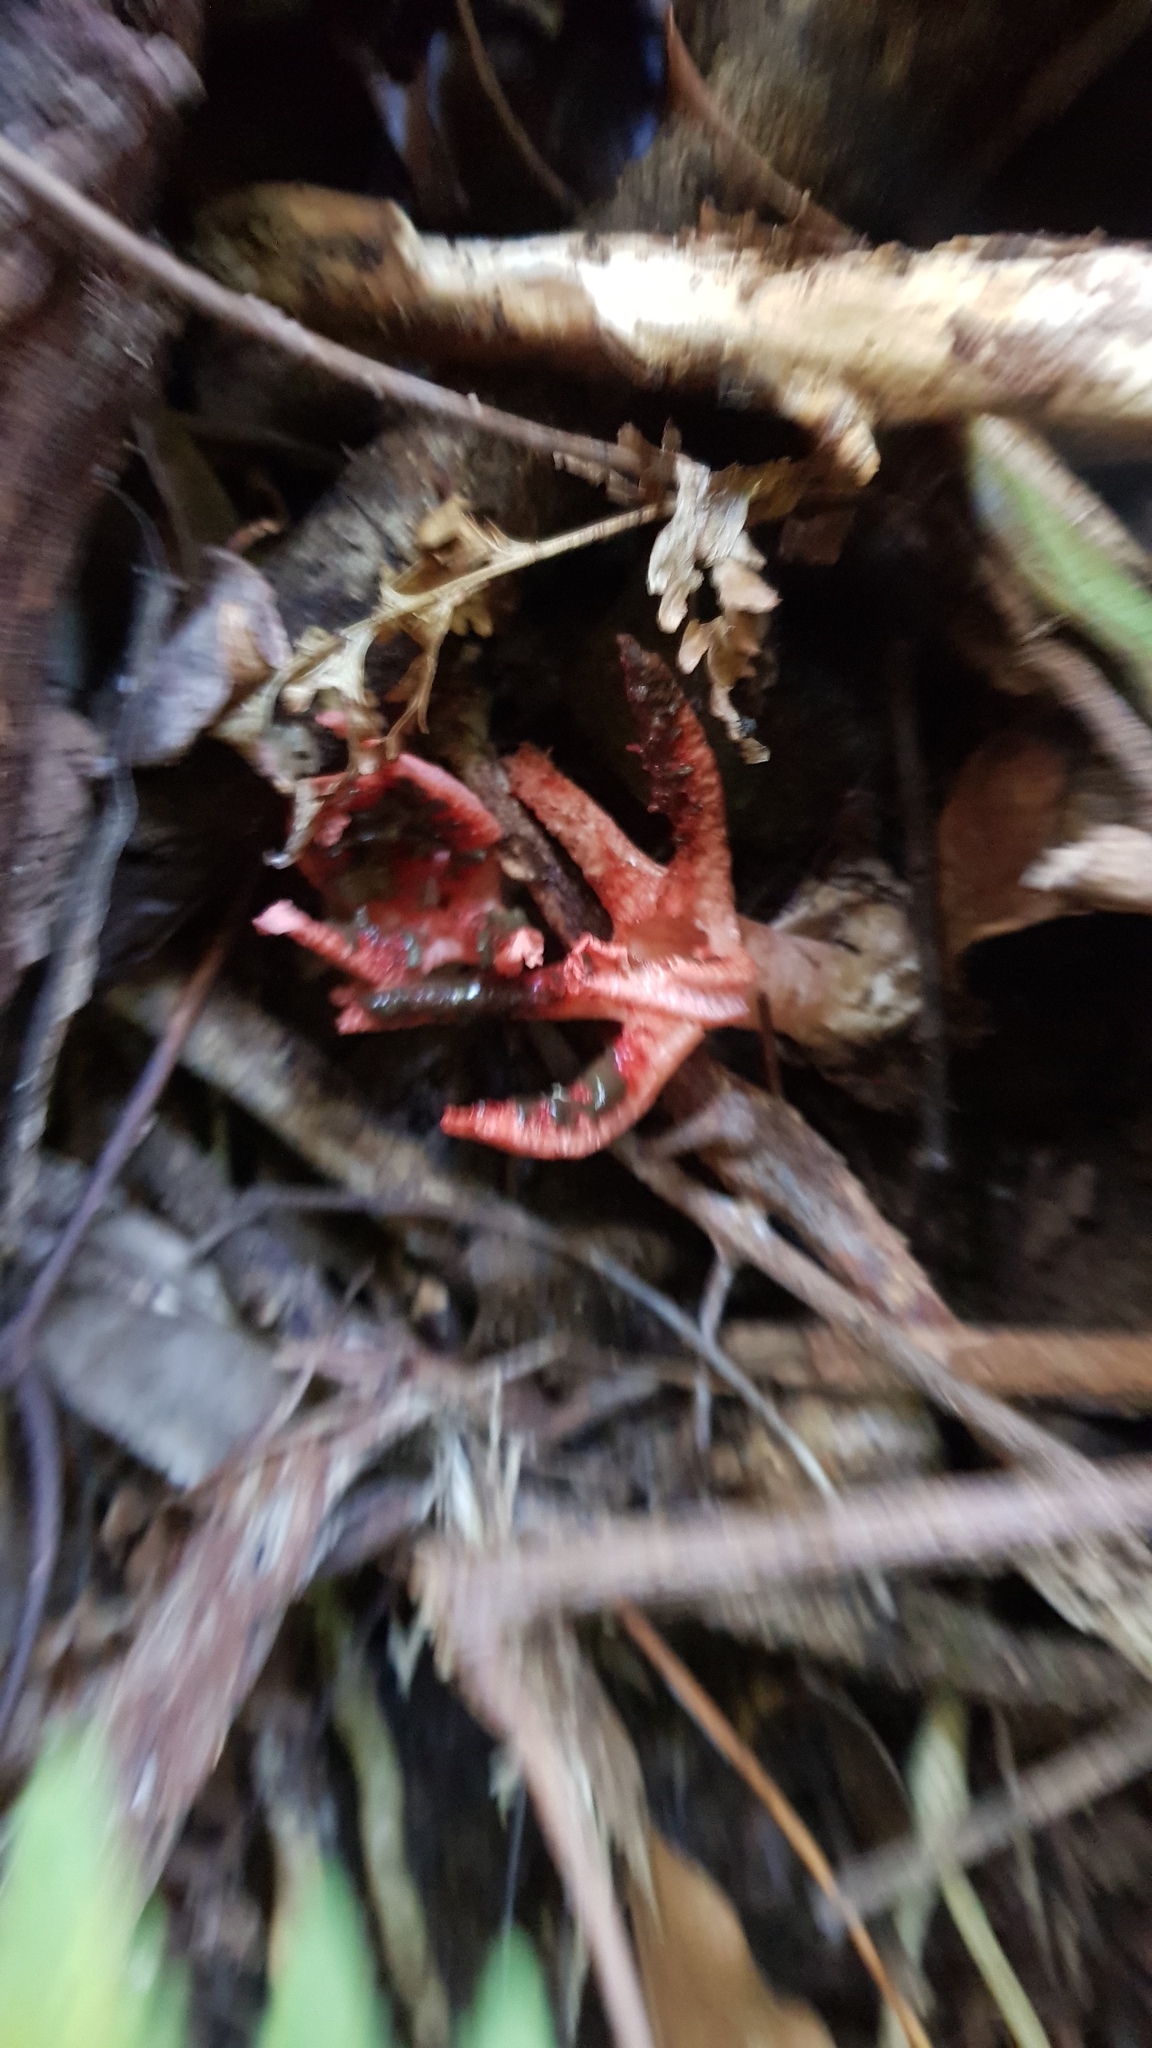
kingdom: Fungi
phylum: Basidiomycota
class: Agaricomycetes
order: Phallales
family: Phallaceae
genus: Pseudocolus
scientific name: Pseudocolus fusiformis
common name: Stinky squid
